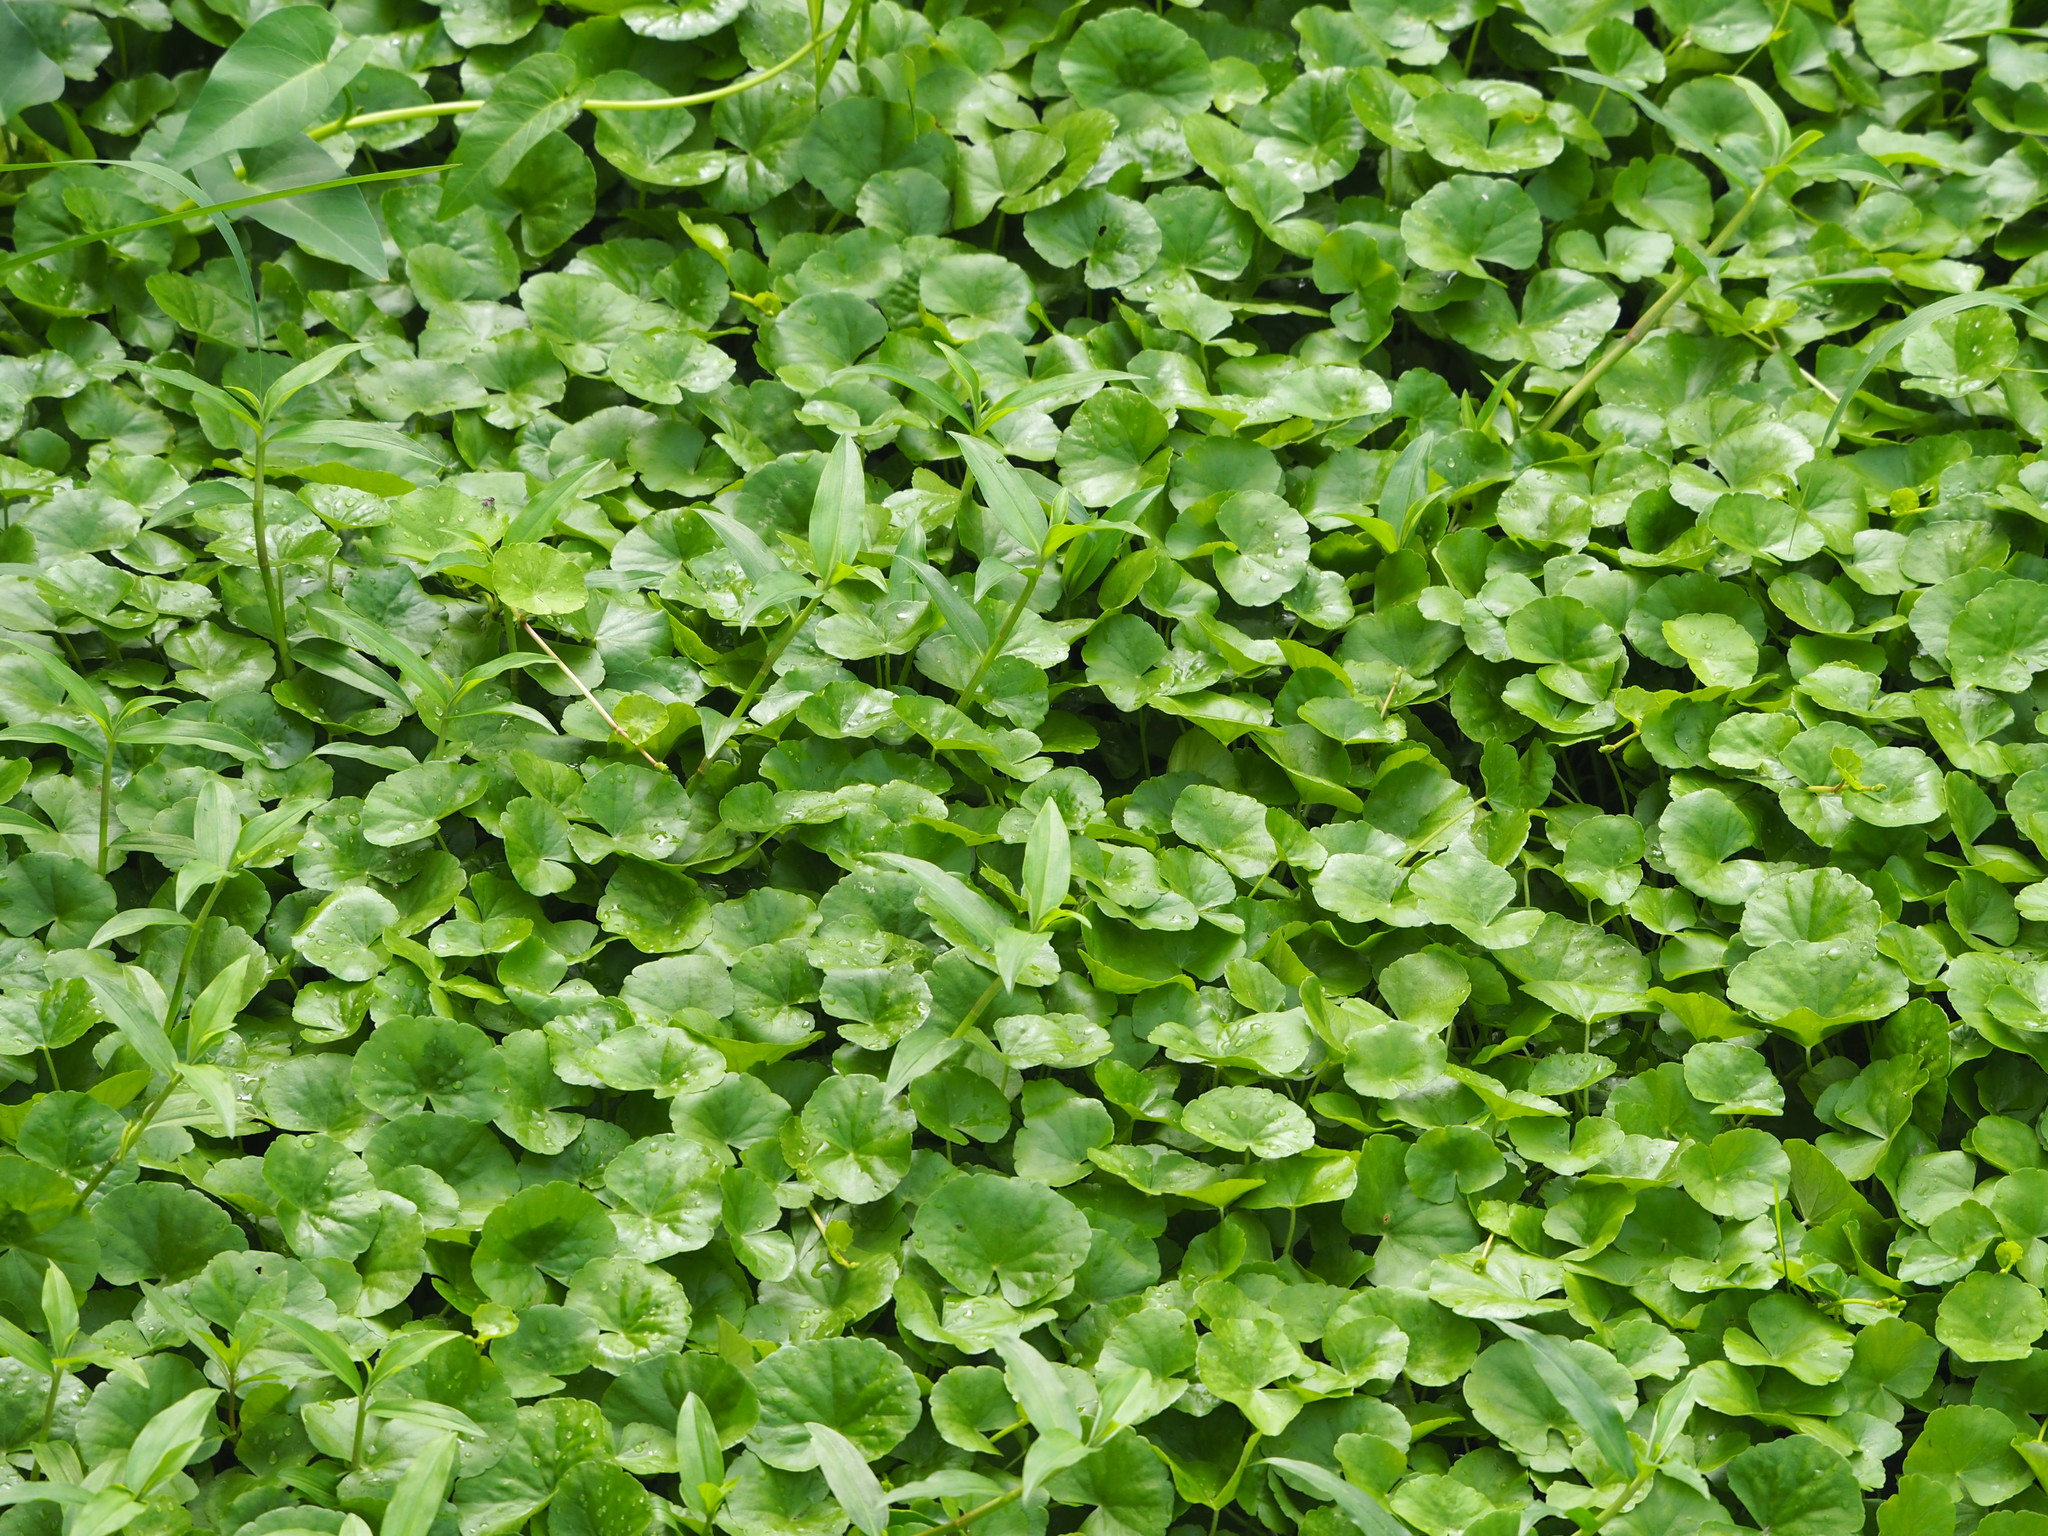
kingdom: Plantae
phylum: Tracheophyta
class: Magnoliopsida
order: Apiales
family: Araliaceae
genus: Hydrocotyle
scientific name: Hydrocotyle leucocephala
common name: Brazilian pennywort
